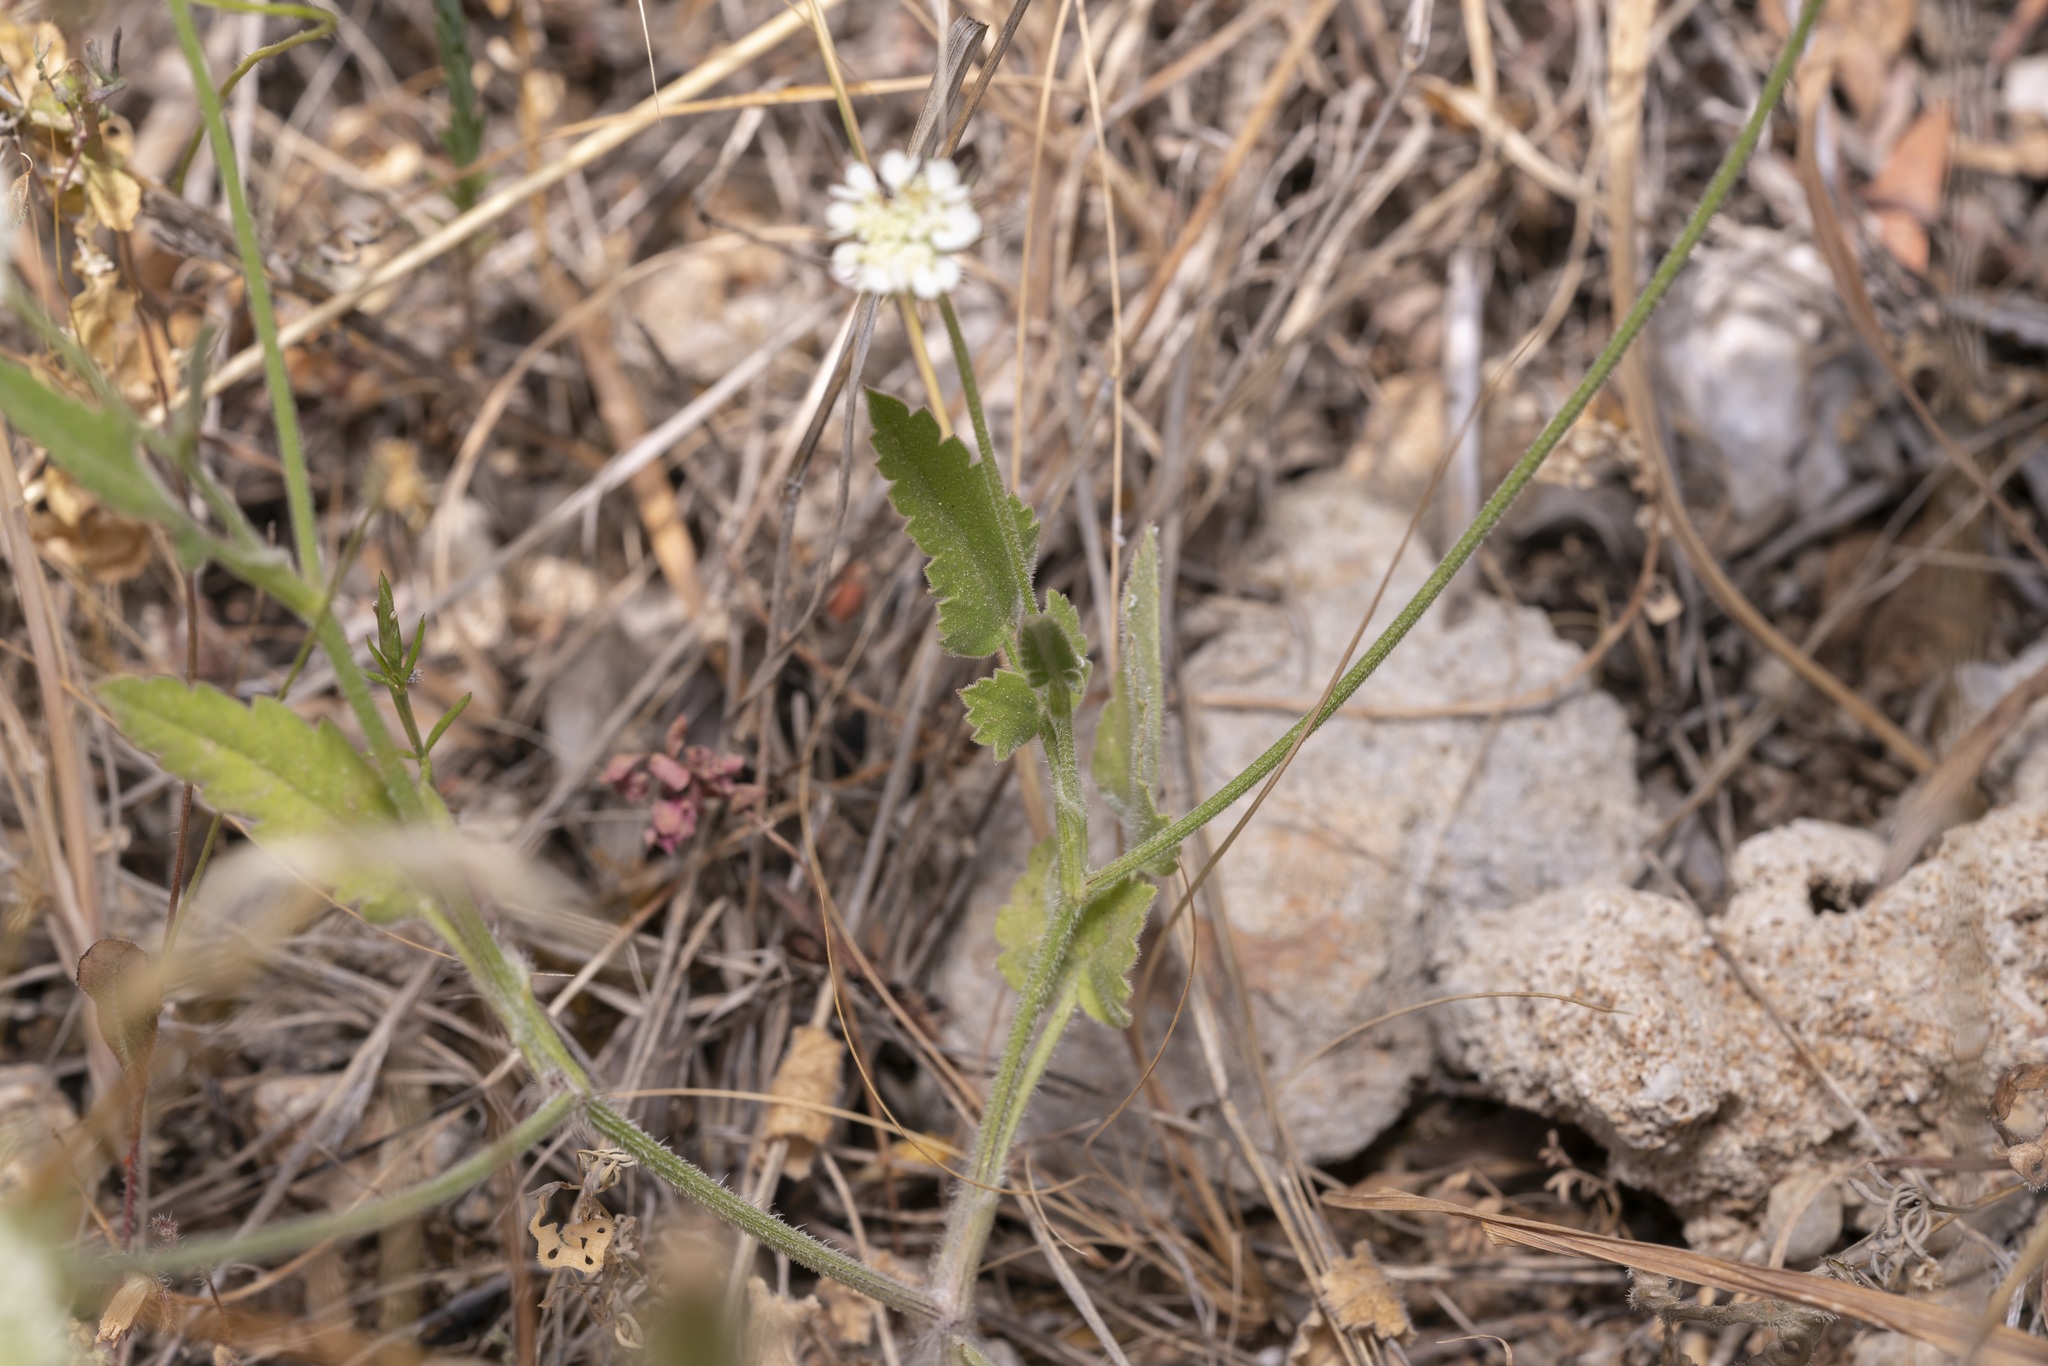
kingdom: Plantae
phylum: Tracheophyta
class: Magnoliopsida
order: Apiales
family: Apiaceae
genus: Tordylium
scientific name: Tordylium aegaeum
